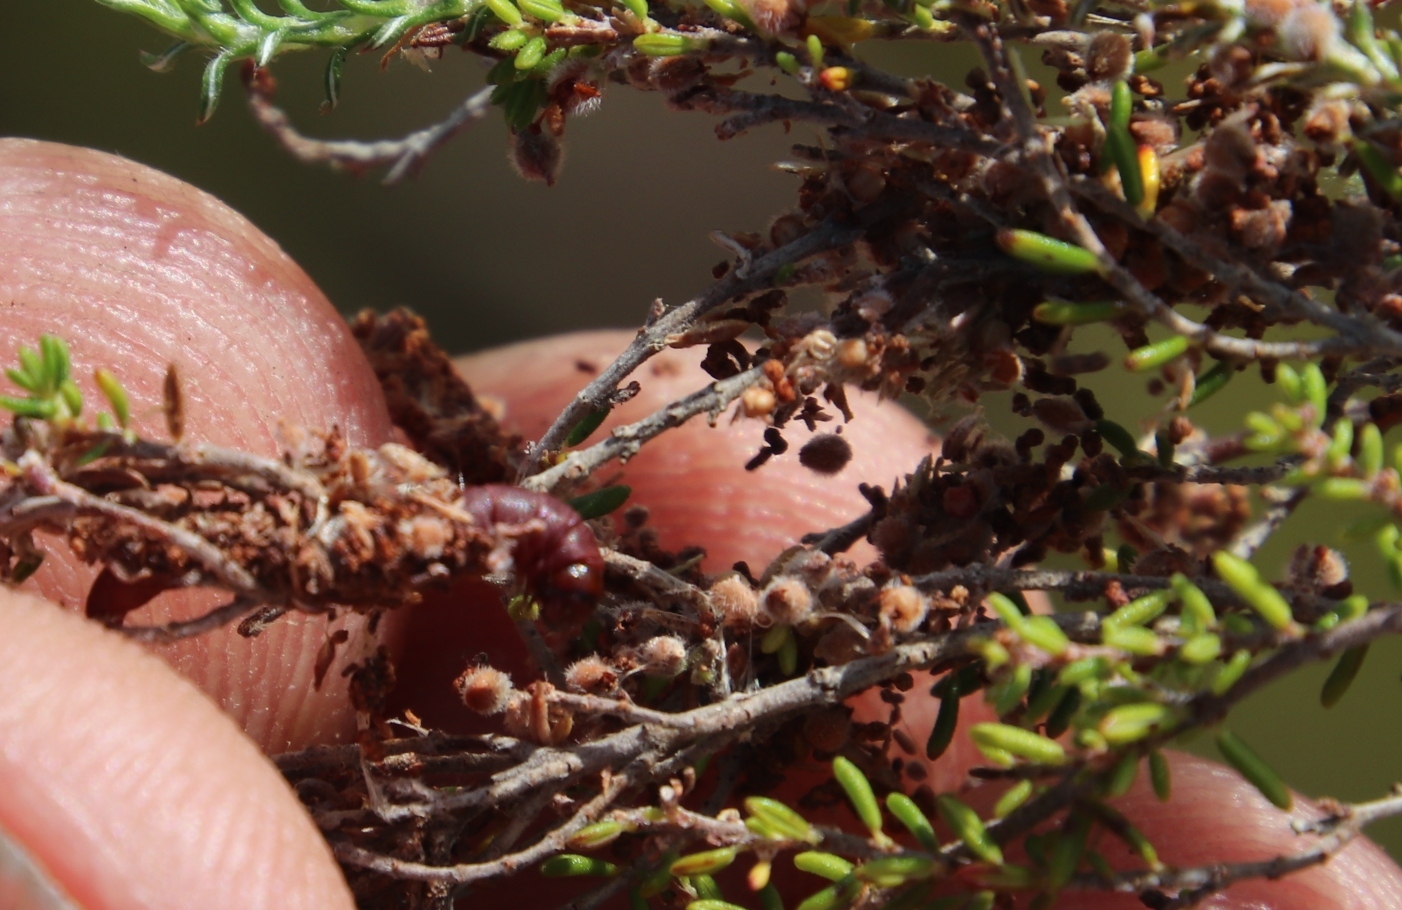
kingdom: Plantae
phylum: Tracheophyta
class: Magnoliopsida
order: Ericales
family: Ericaceae
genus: Erica
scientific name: Erica puberuliflora
